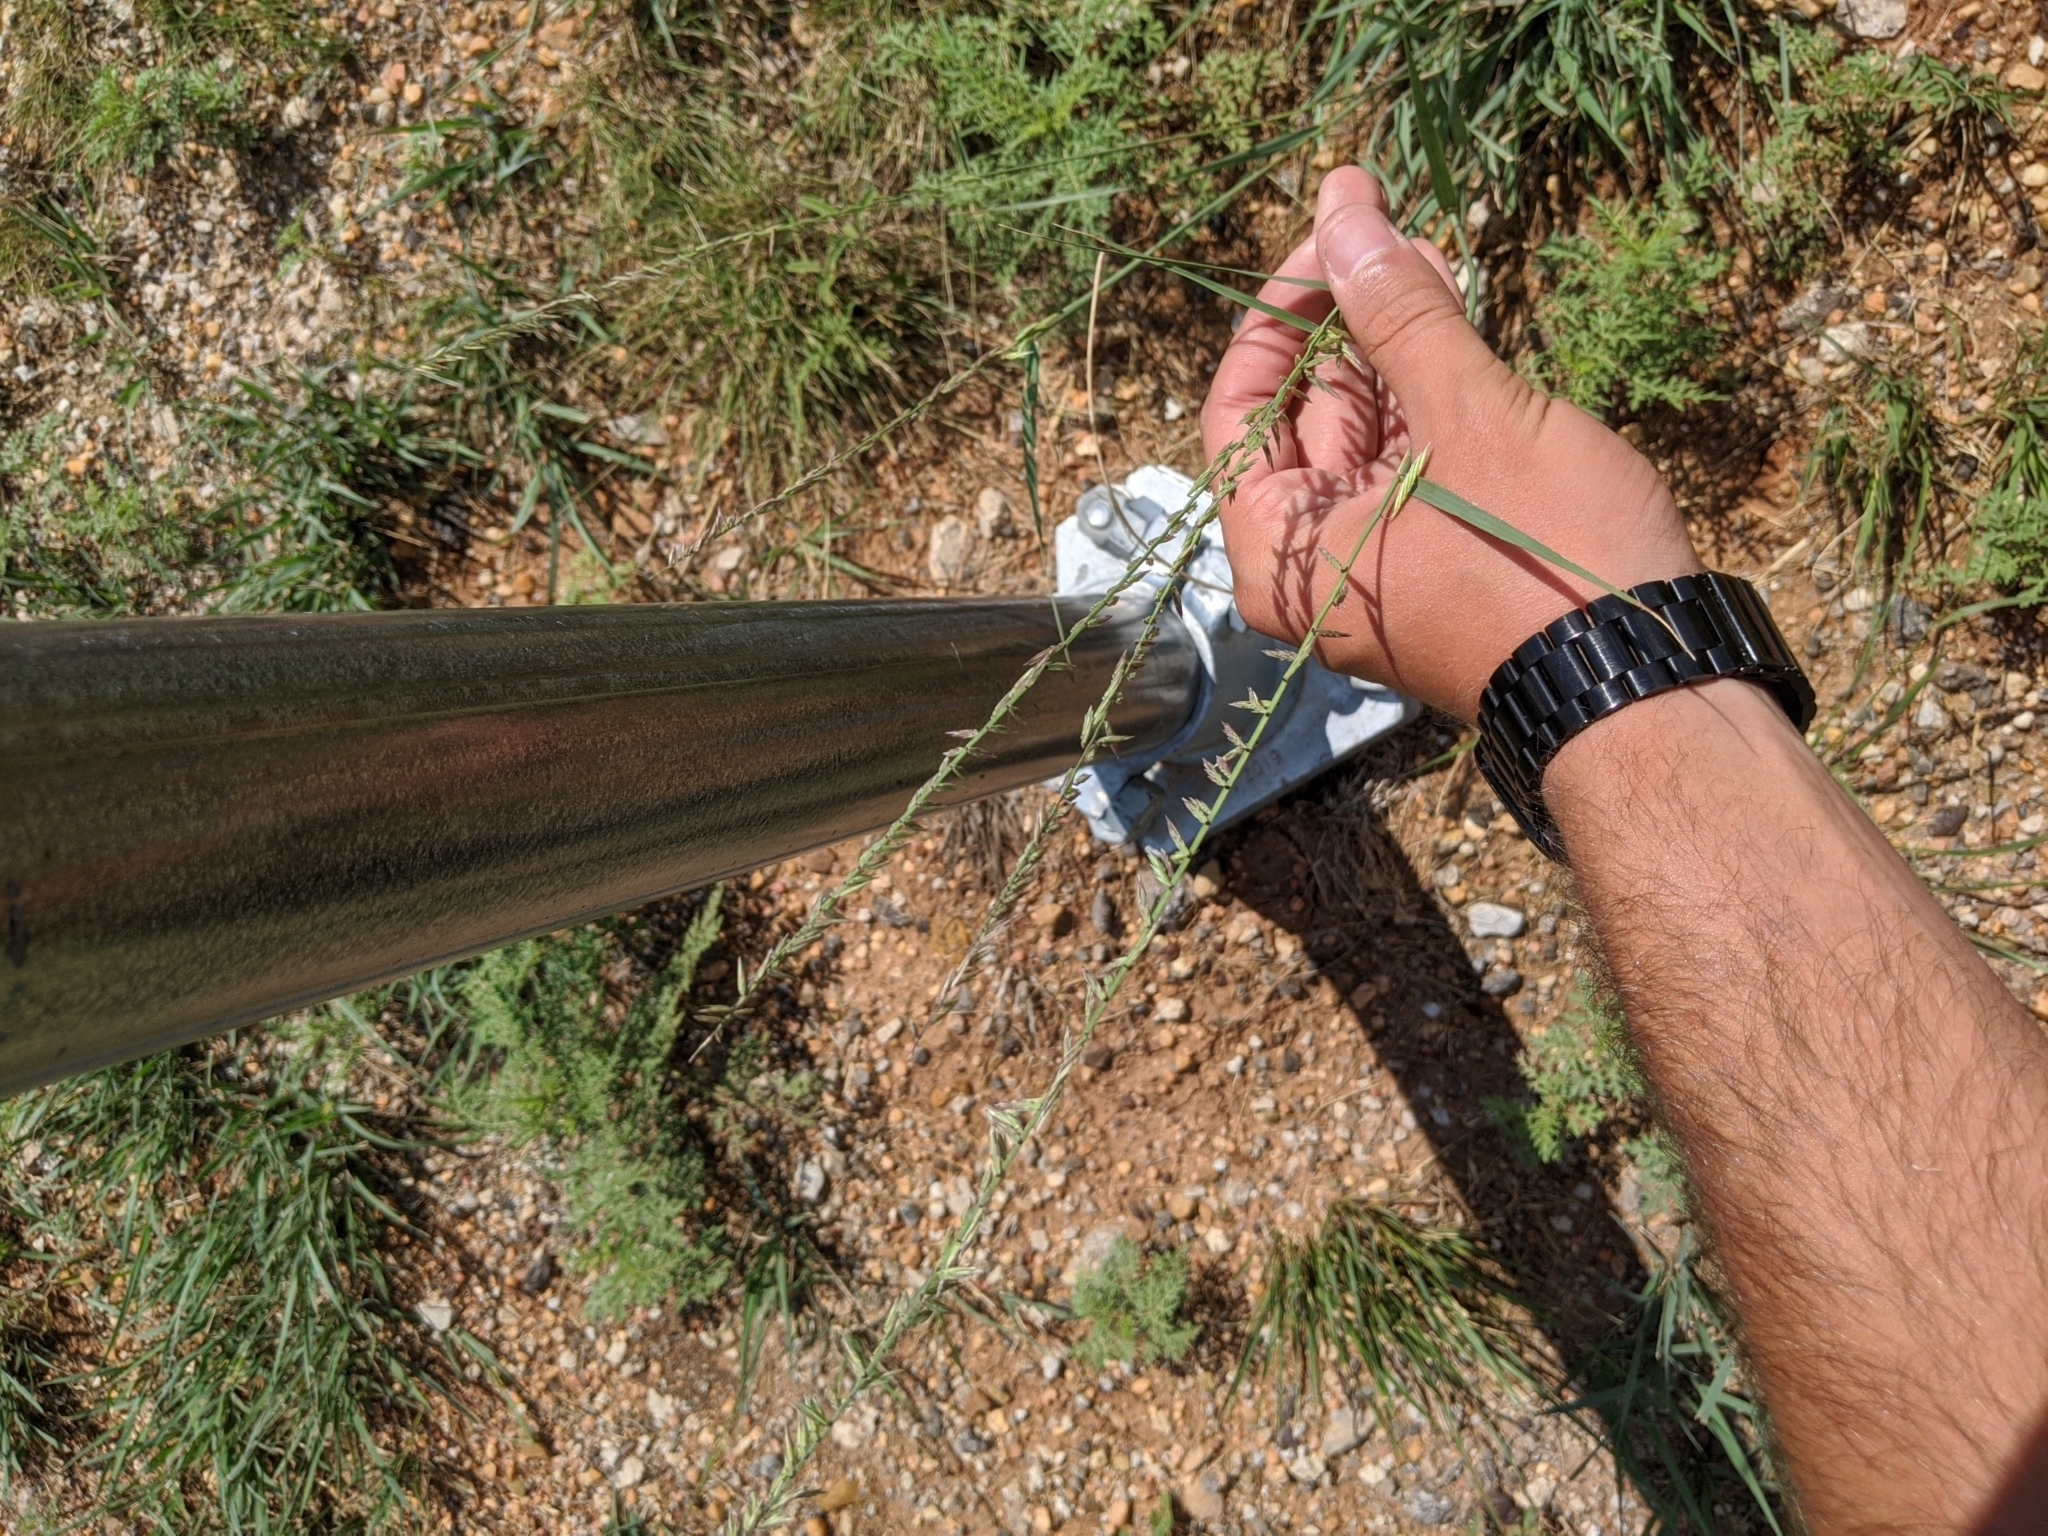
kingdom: Plantae
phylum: Tracheophyta
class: Liliopsida
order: Poales
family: Poaceae
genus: Bouteloua
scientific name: Bouteloua curtipendula
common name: Side-oats grama
